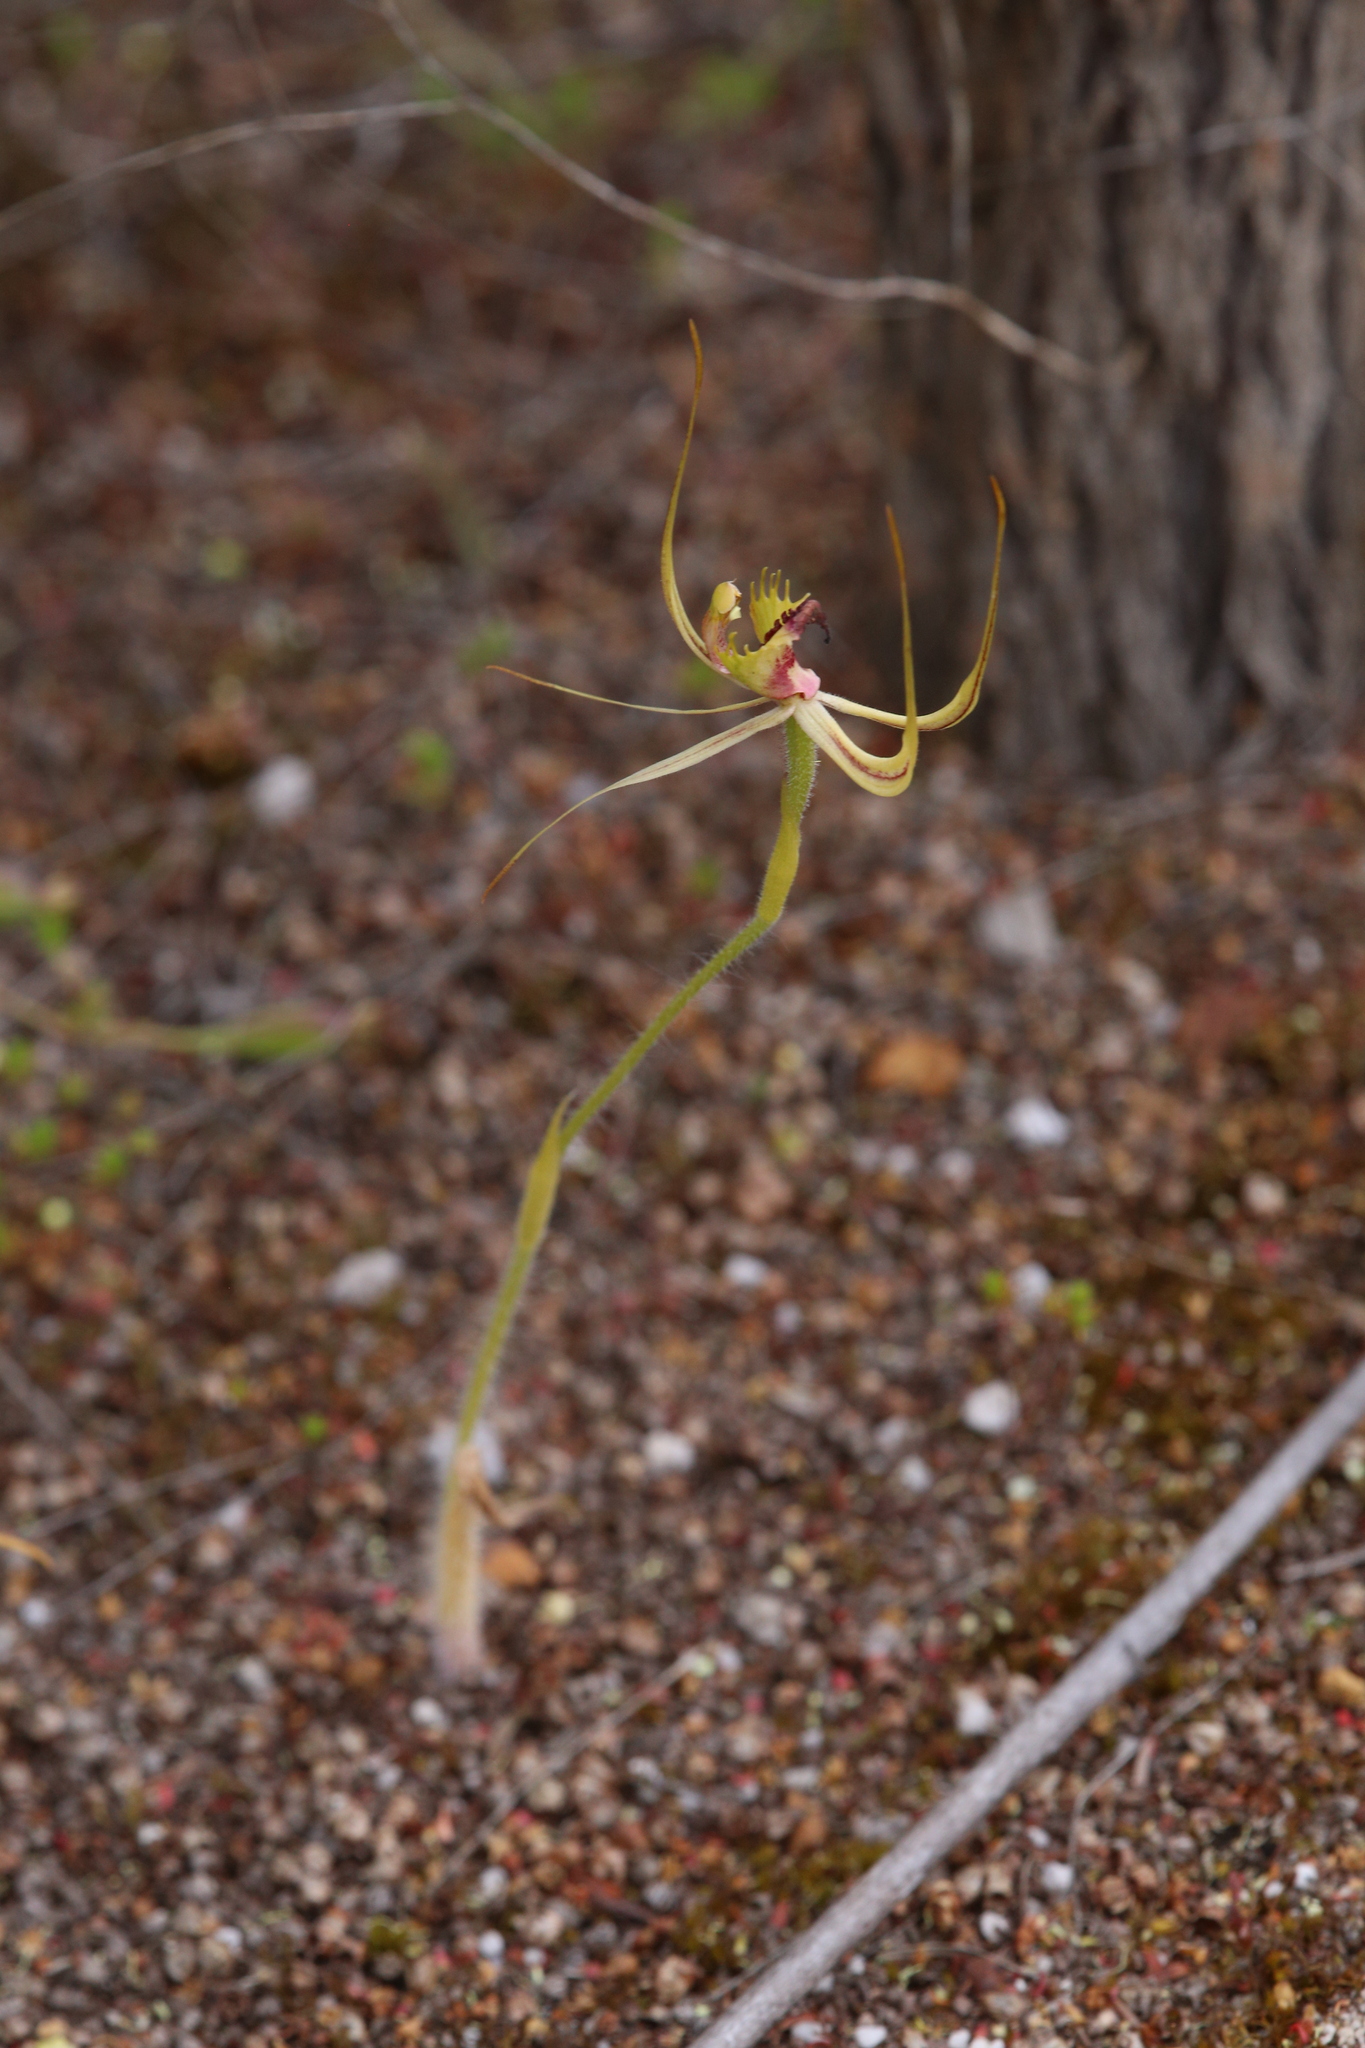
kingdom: Plantae
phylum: Tracheophyta
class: Liliopsida
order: Asparagales
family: Orchidaceae
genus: Caladenia
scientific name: Caladenia attingens
